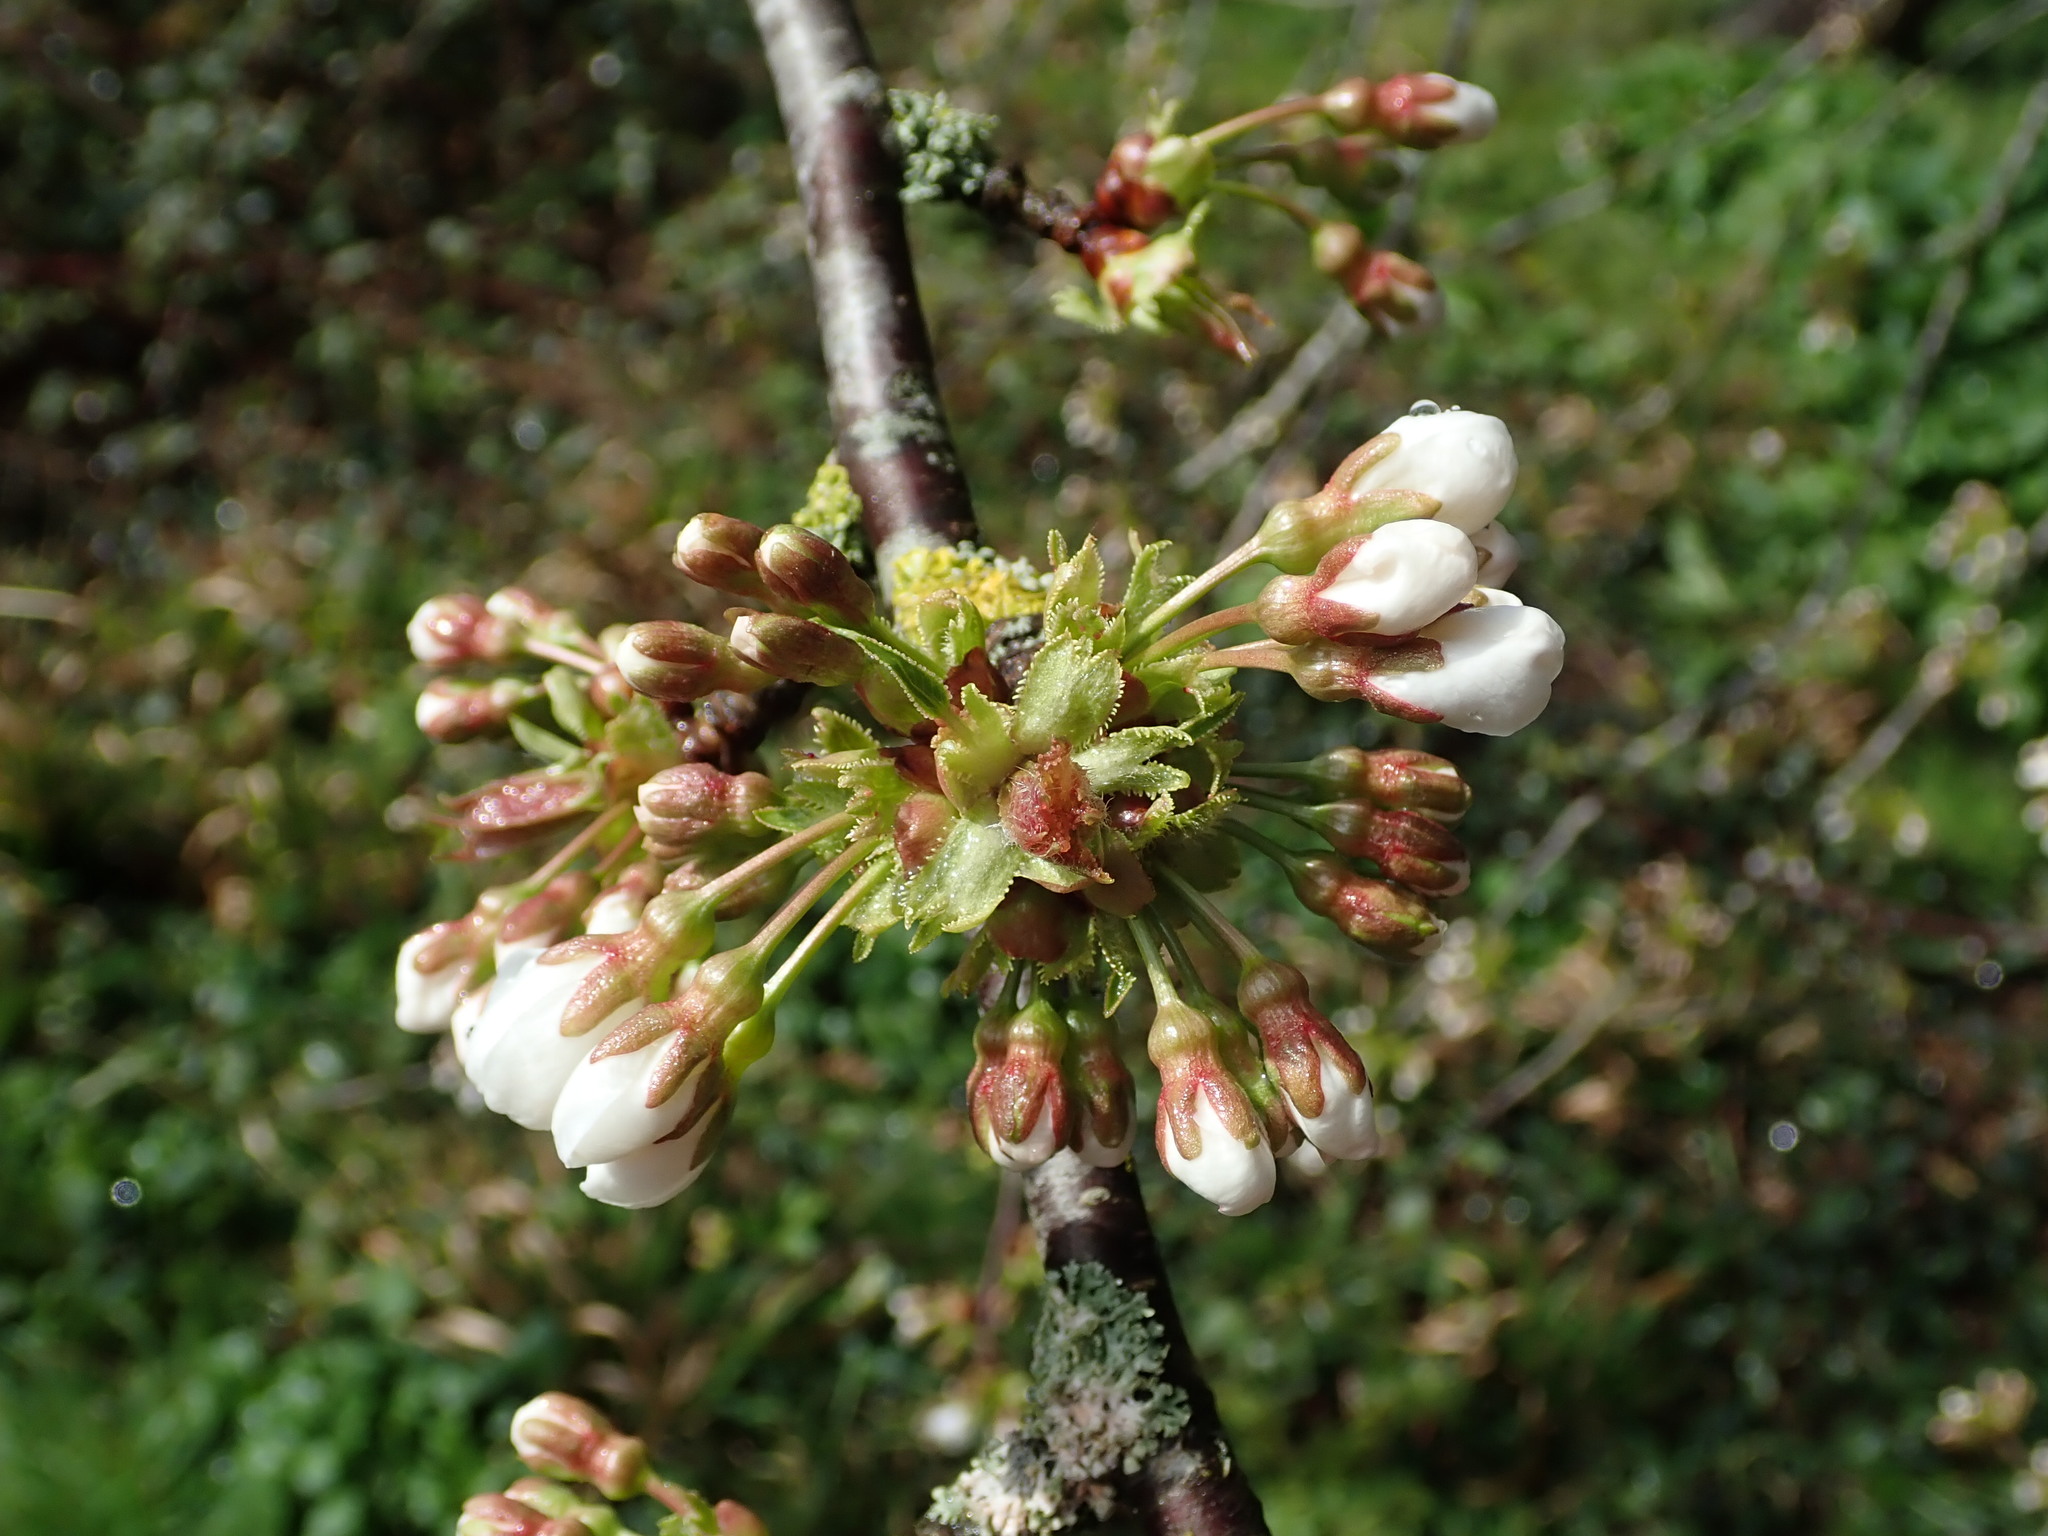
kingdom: Plantae
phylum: Tracheophyta
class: Magnoliopsida
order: Rosales
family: Rosaceae
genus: Prunus
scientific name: Prunus avium
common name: Sweet cherry
